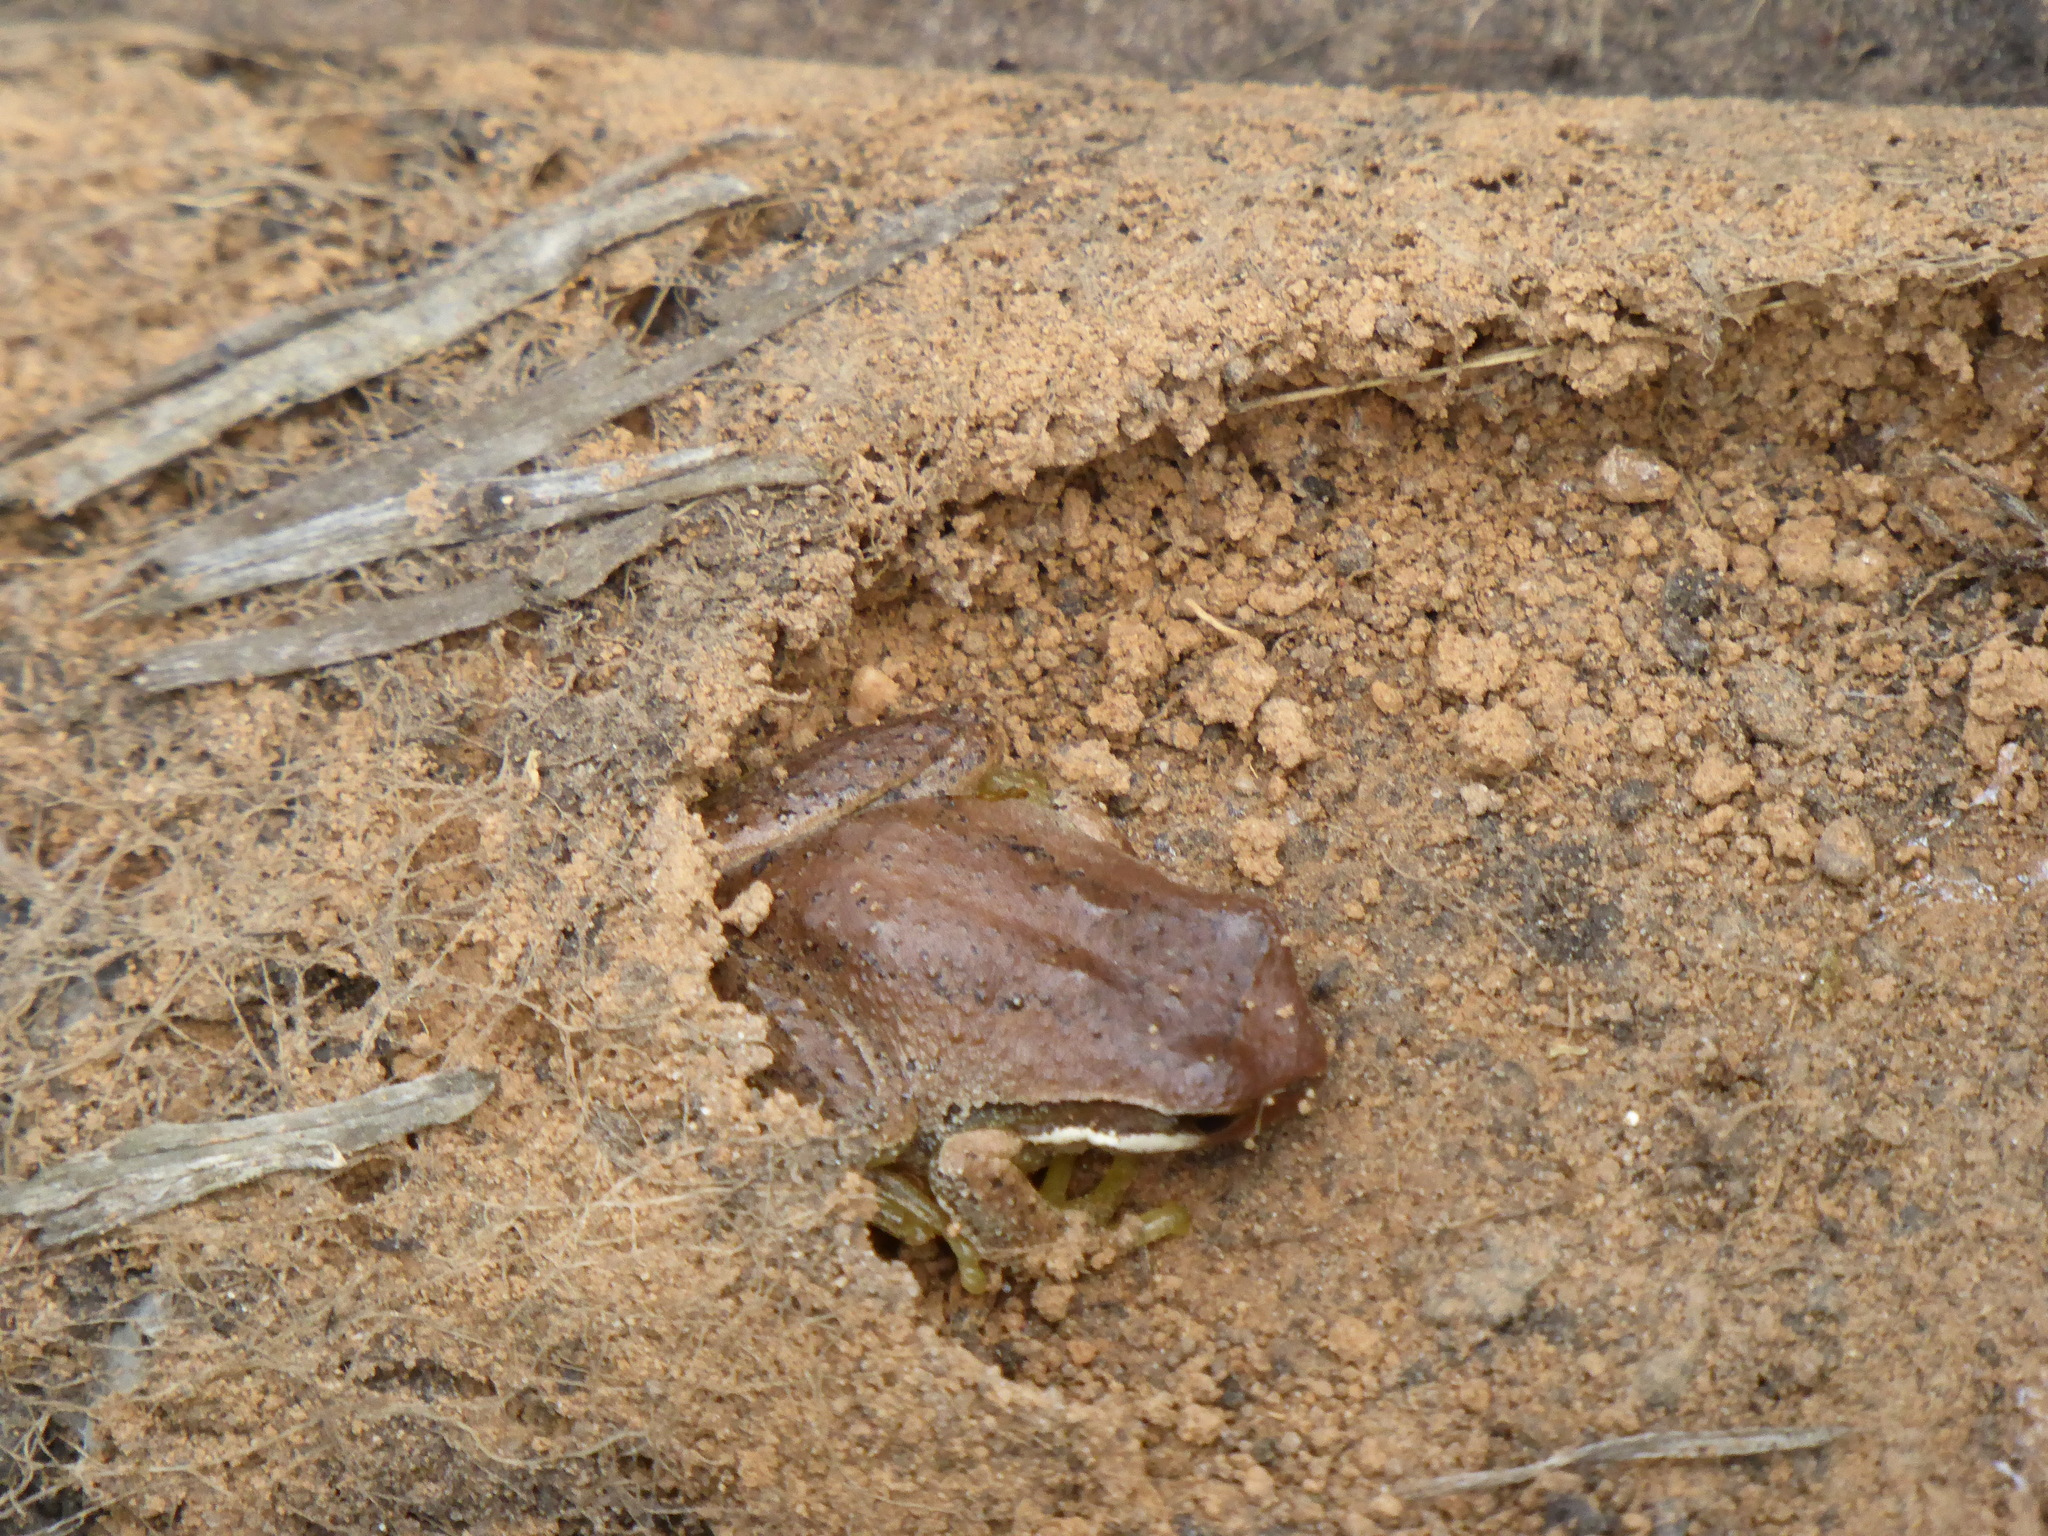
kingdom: Animalia
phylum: Chordata
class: Amphibia
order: Anura
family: Pelodryadidae
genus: Litoria
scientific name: Litoria ewingii
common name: Southern brown tree frog
